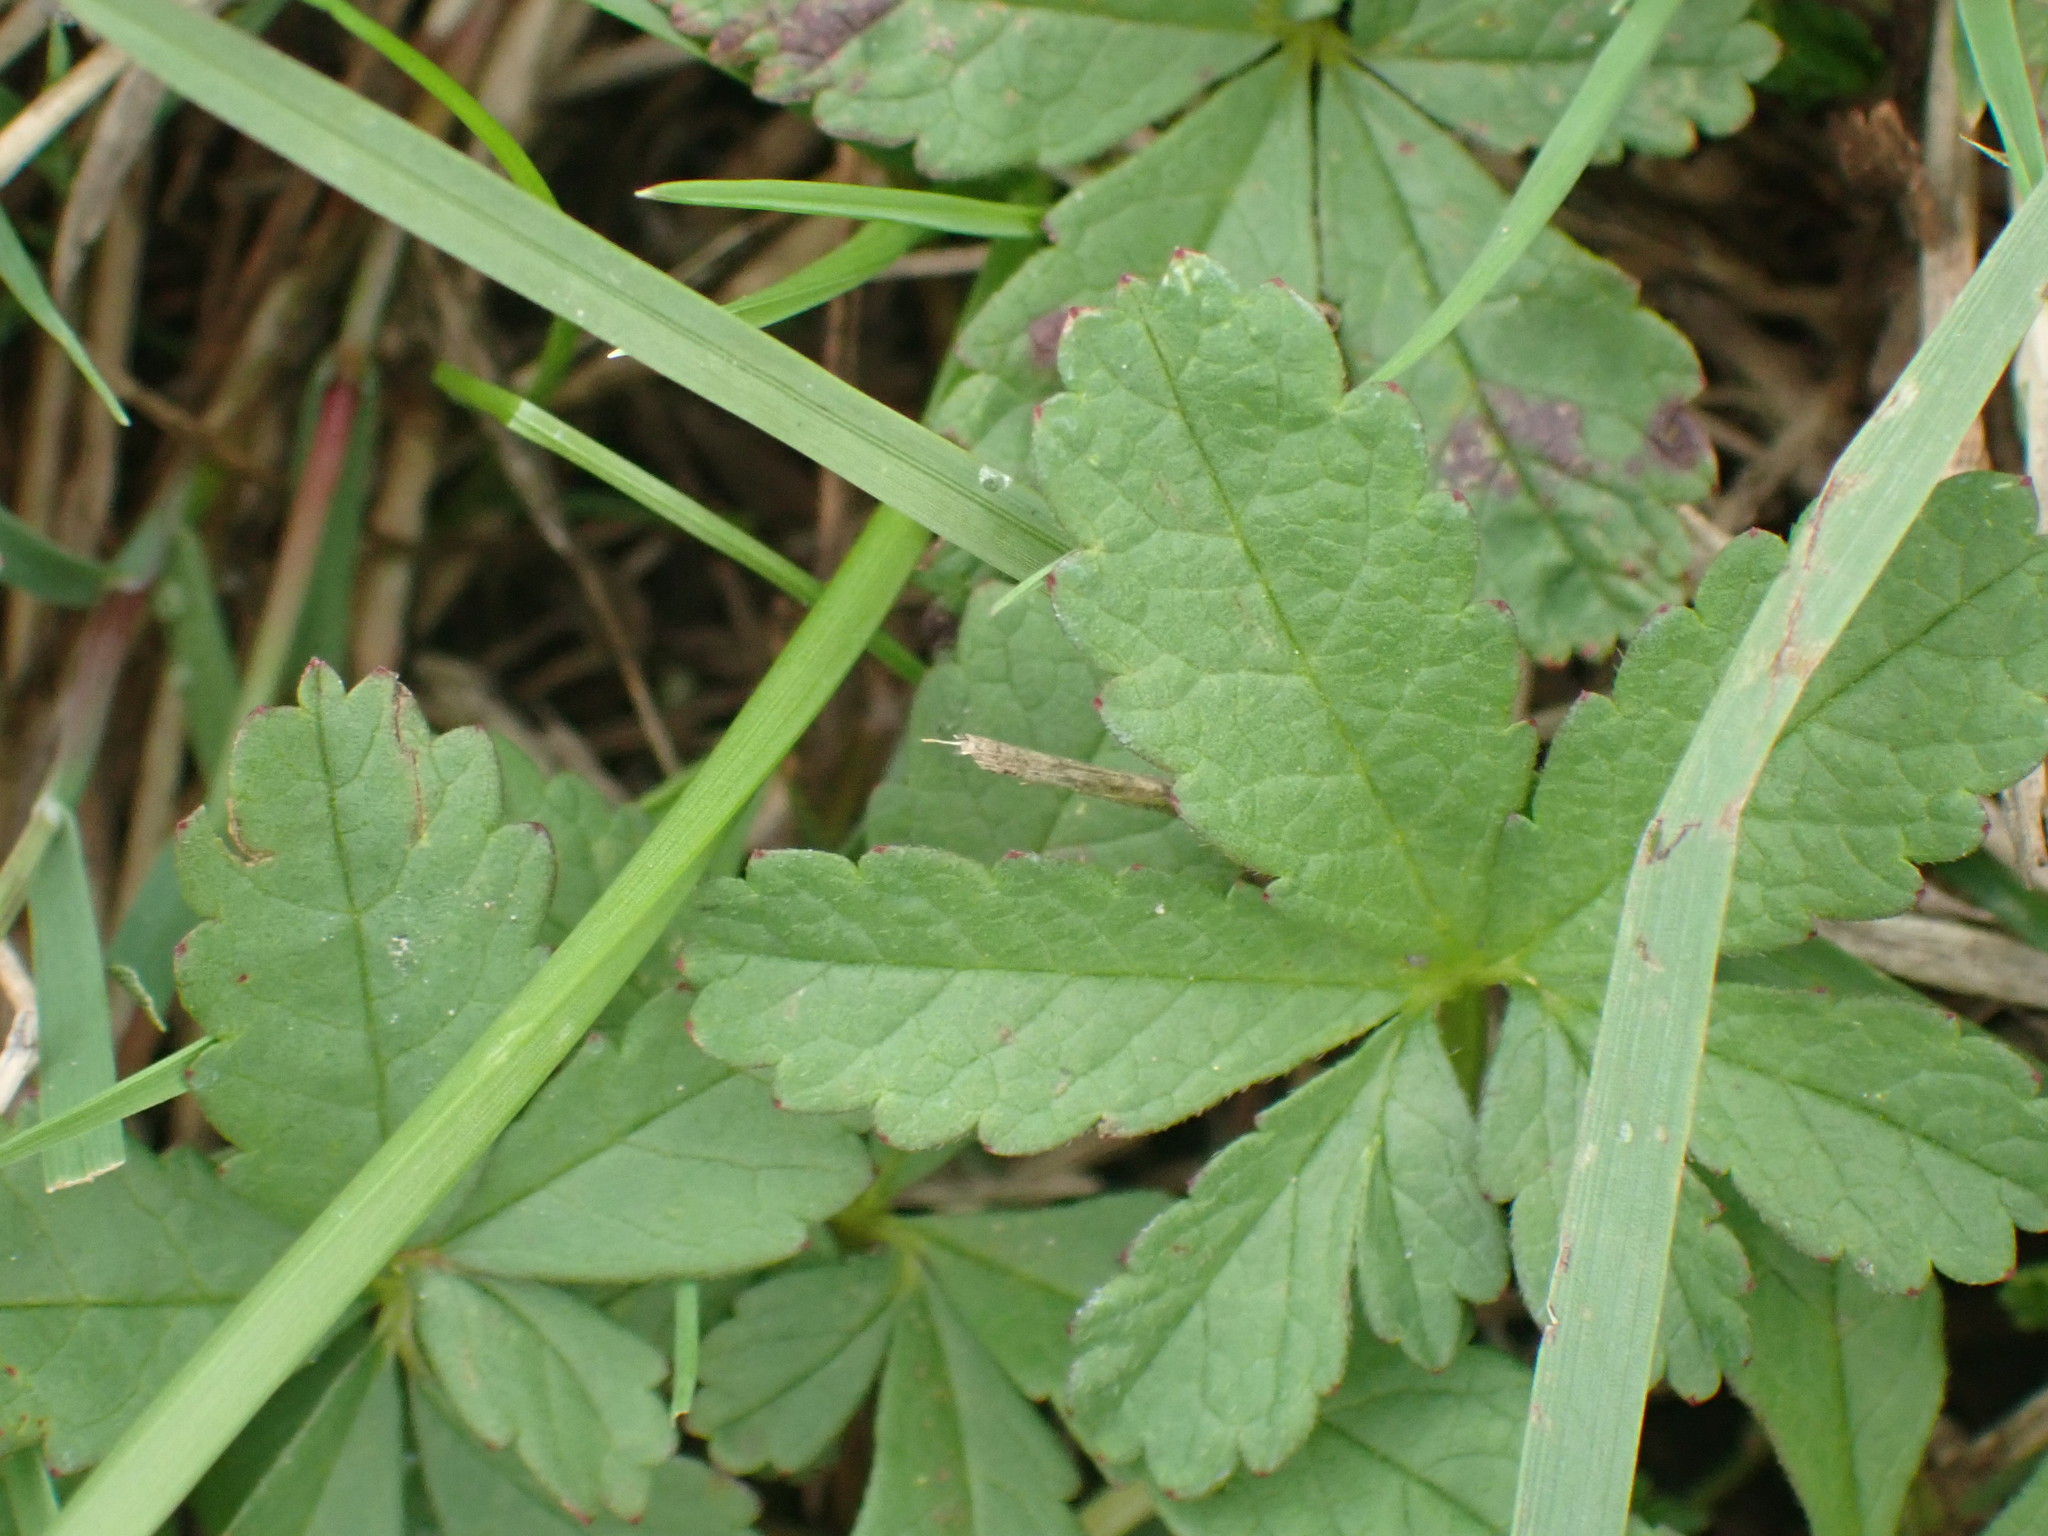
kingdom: Plantae
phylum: Tracheophyta
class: Magnoliopsida
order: Rosales
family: Rosaceae
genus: Potentilla
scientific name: Potentilla reptans
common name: Creeping cinquefoil
